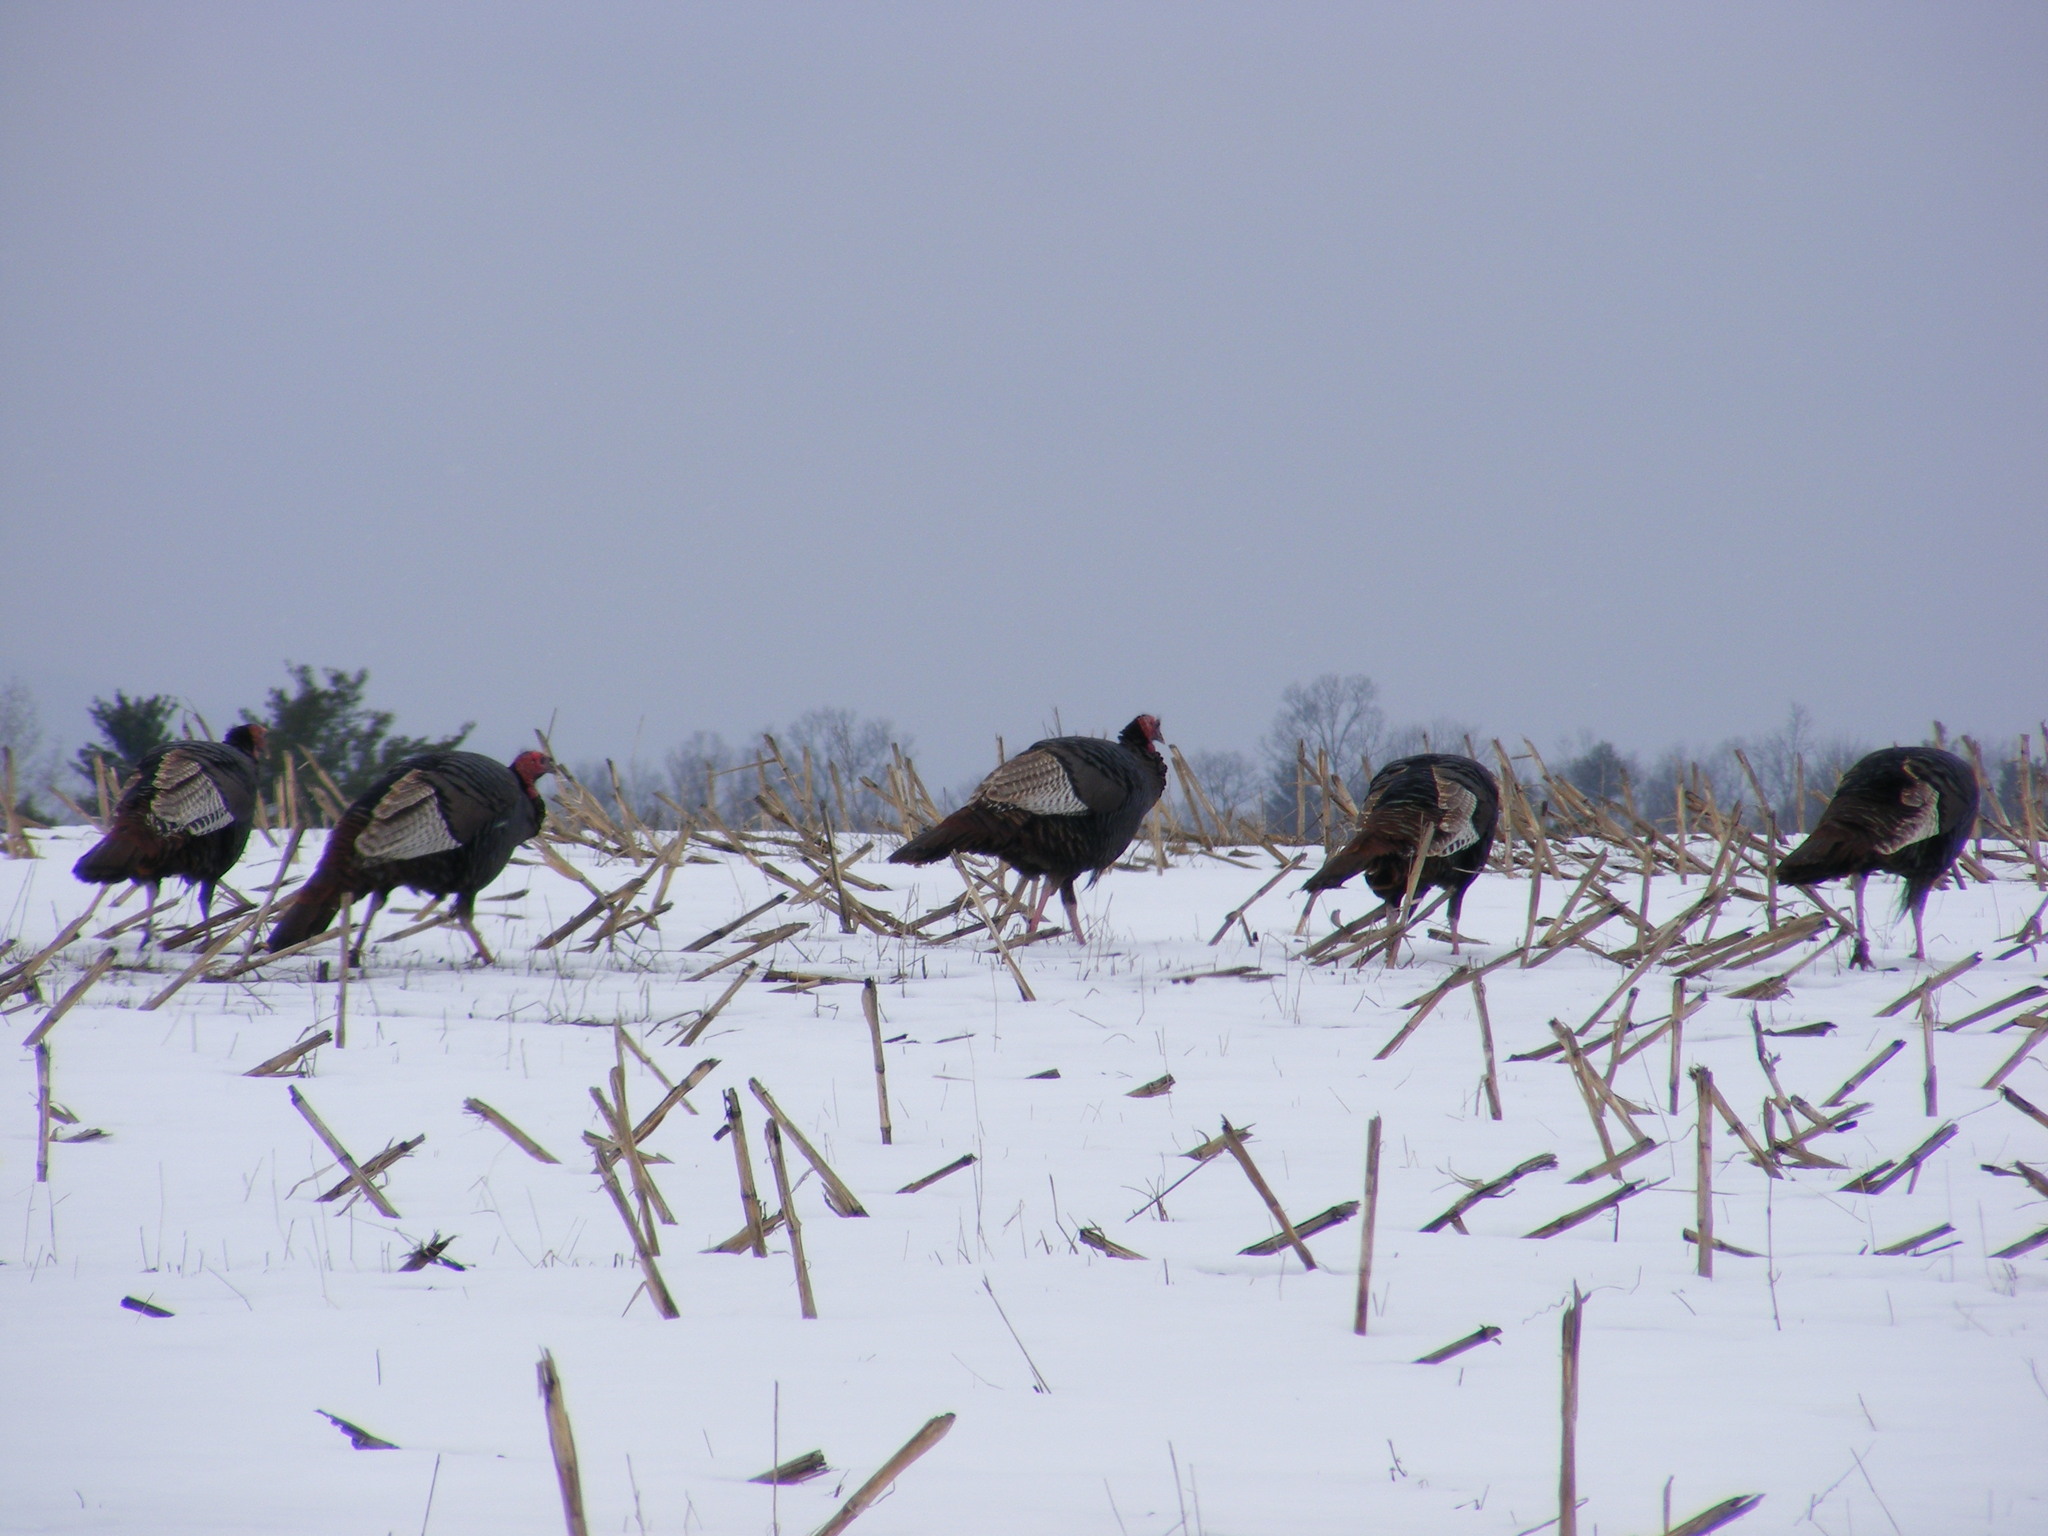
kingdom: Animalia
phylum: Chordata
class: Aves
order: Galliformes
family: Phasianidae
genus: Meleagris
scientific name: Meleagris gallopavo
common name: Wild turkey
